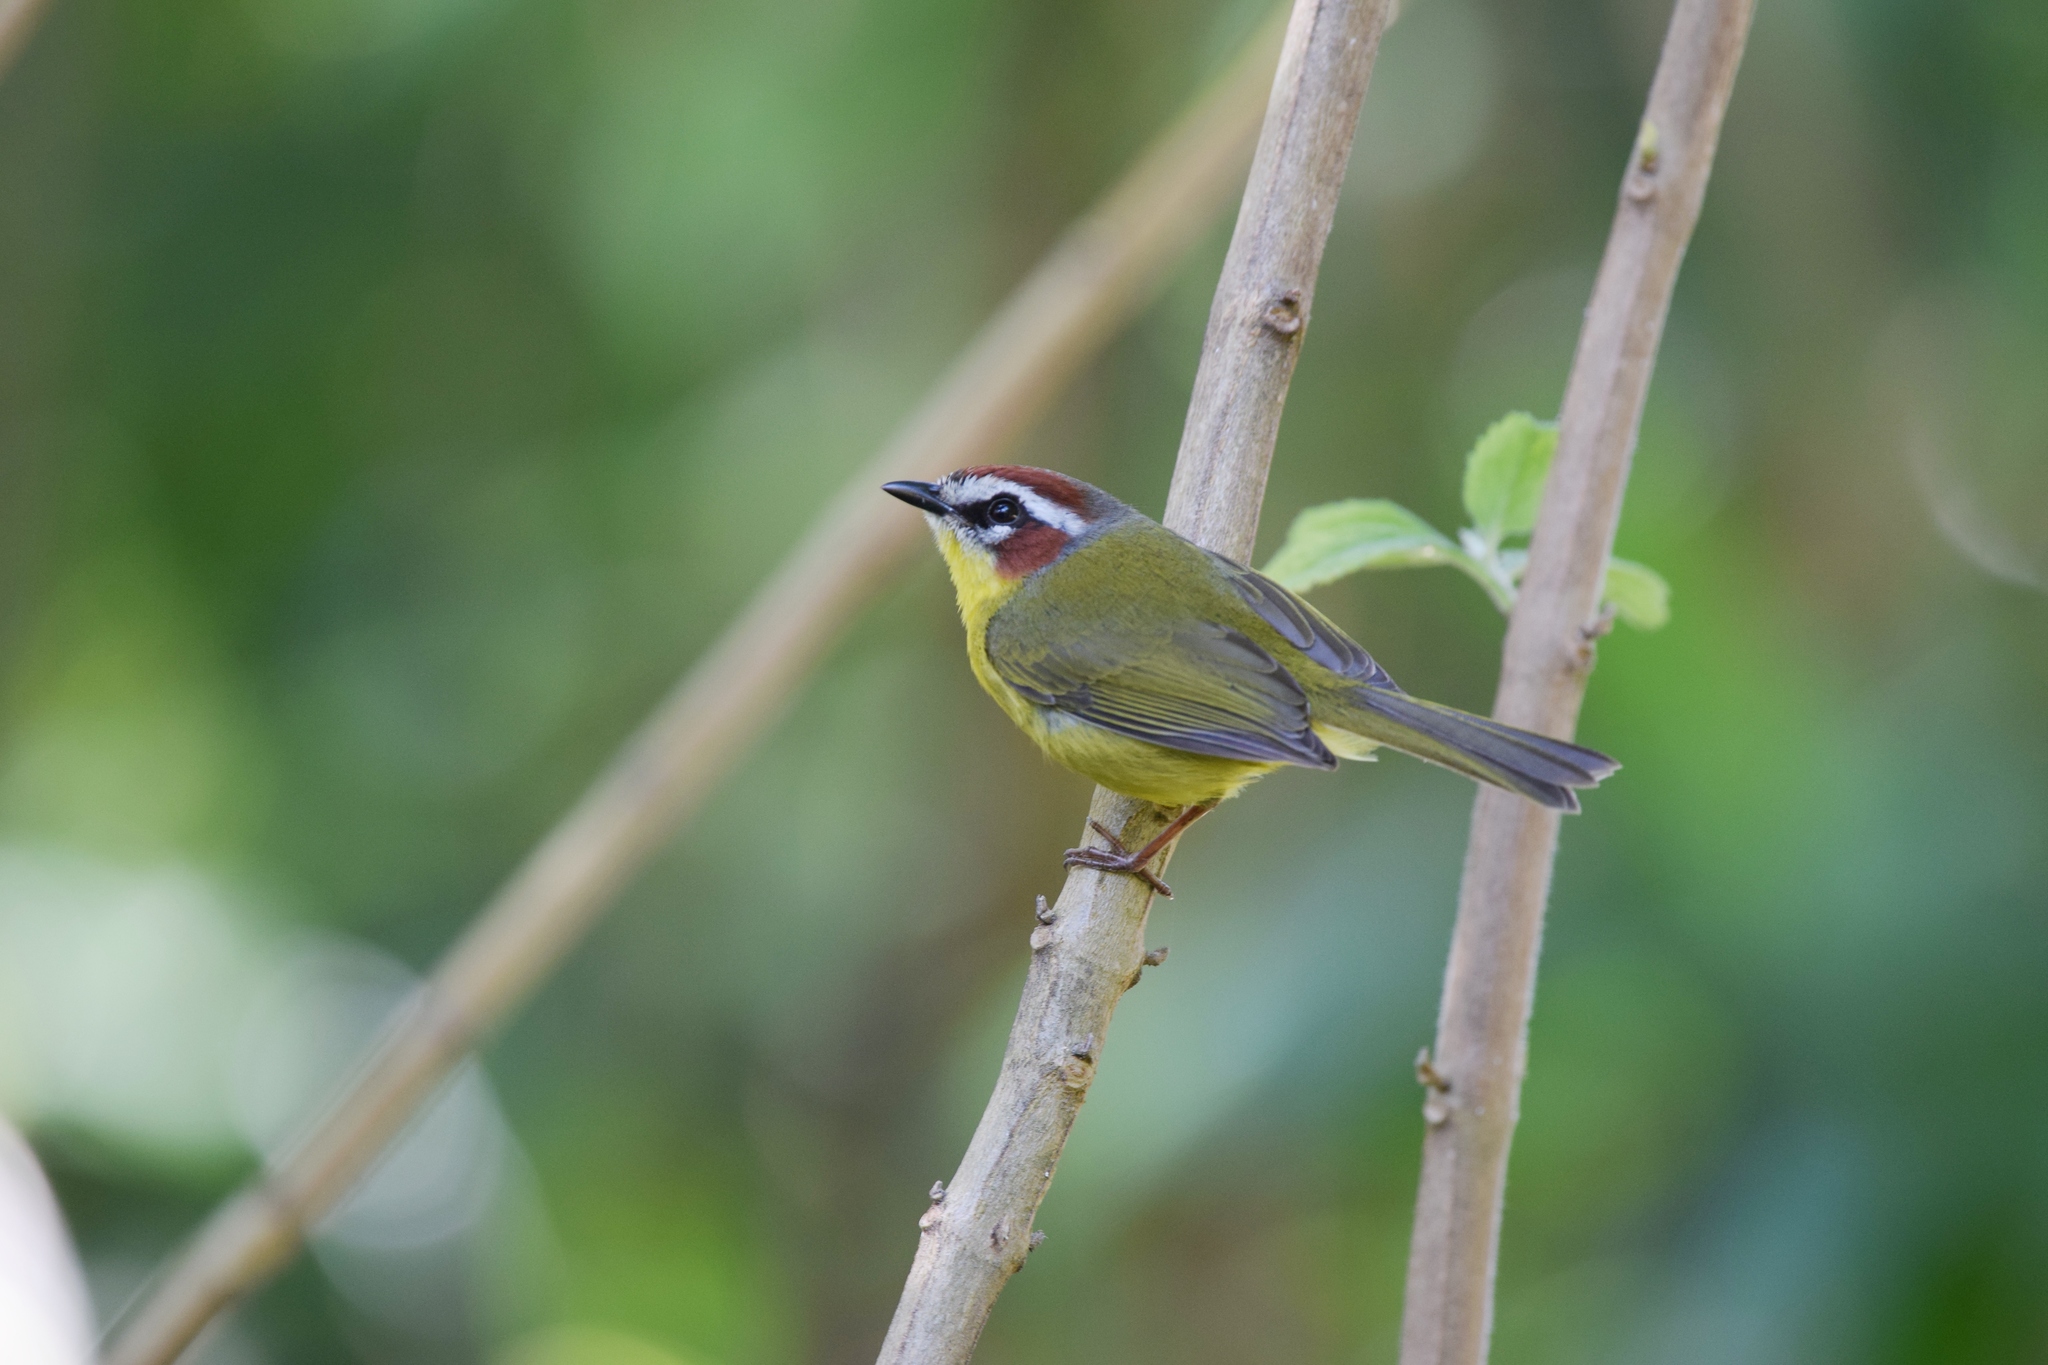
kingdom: Animalia
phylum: Chordata
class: Aves
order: Passeriformes
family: Parulidae
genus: Basileuterus
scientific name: Basileuterus rufifrons
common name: Rufous-capped warbler
